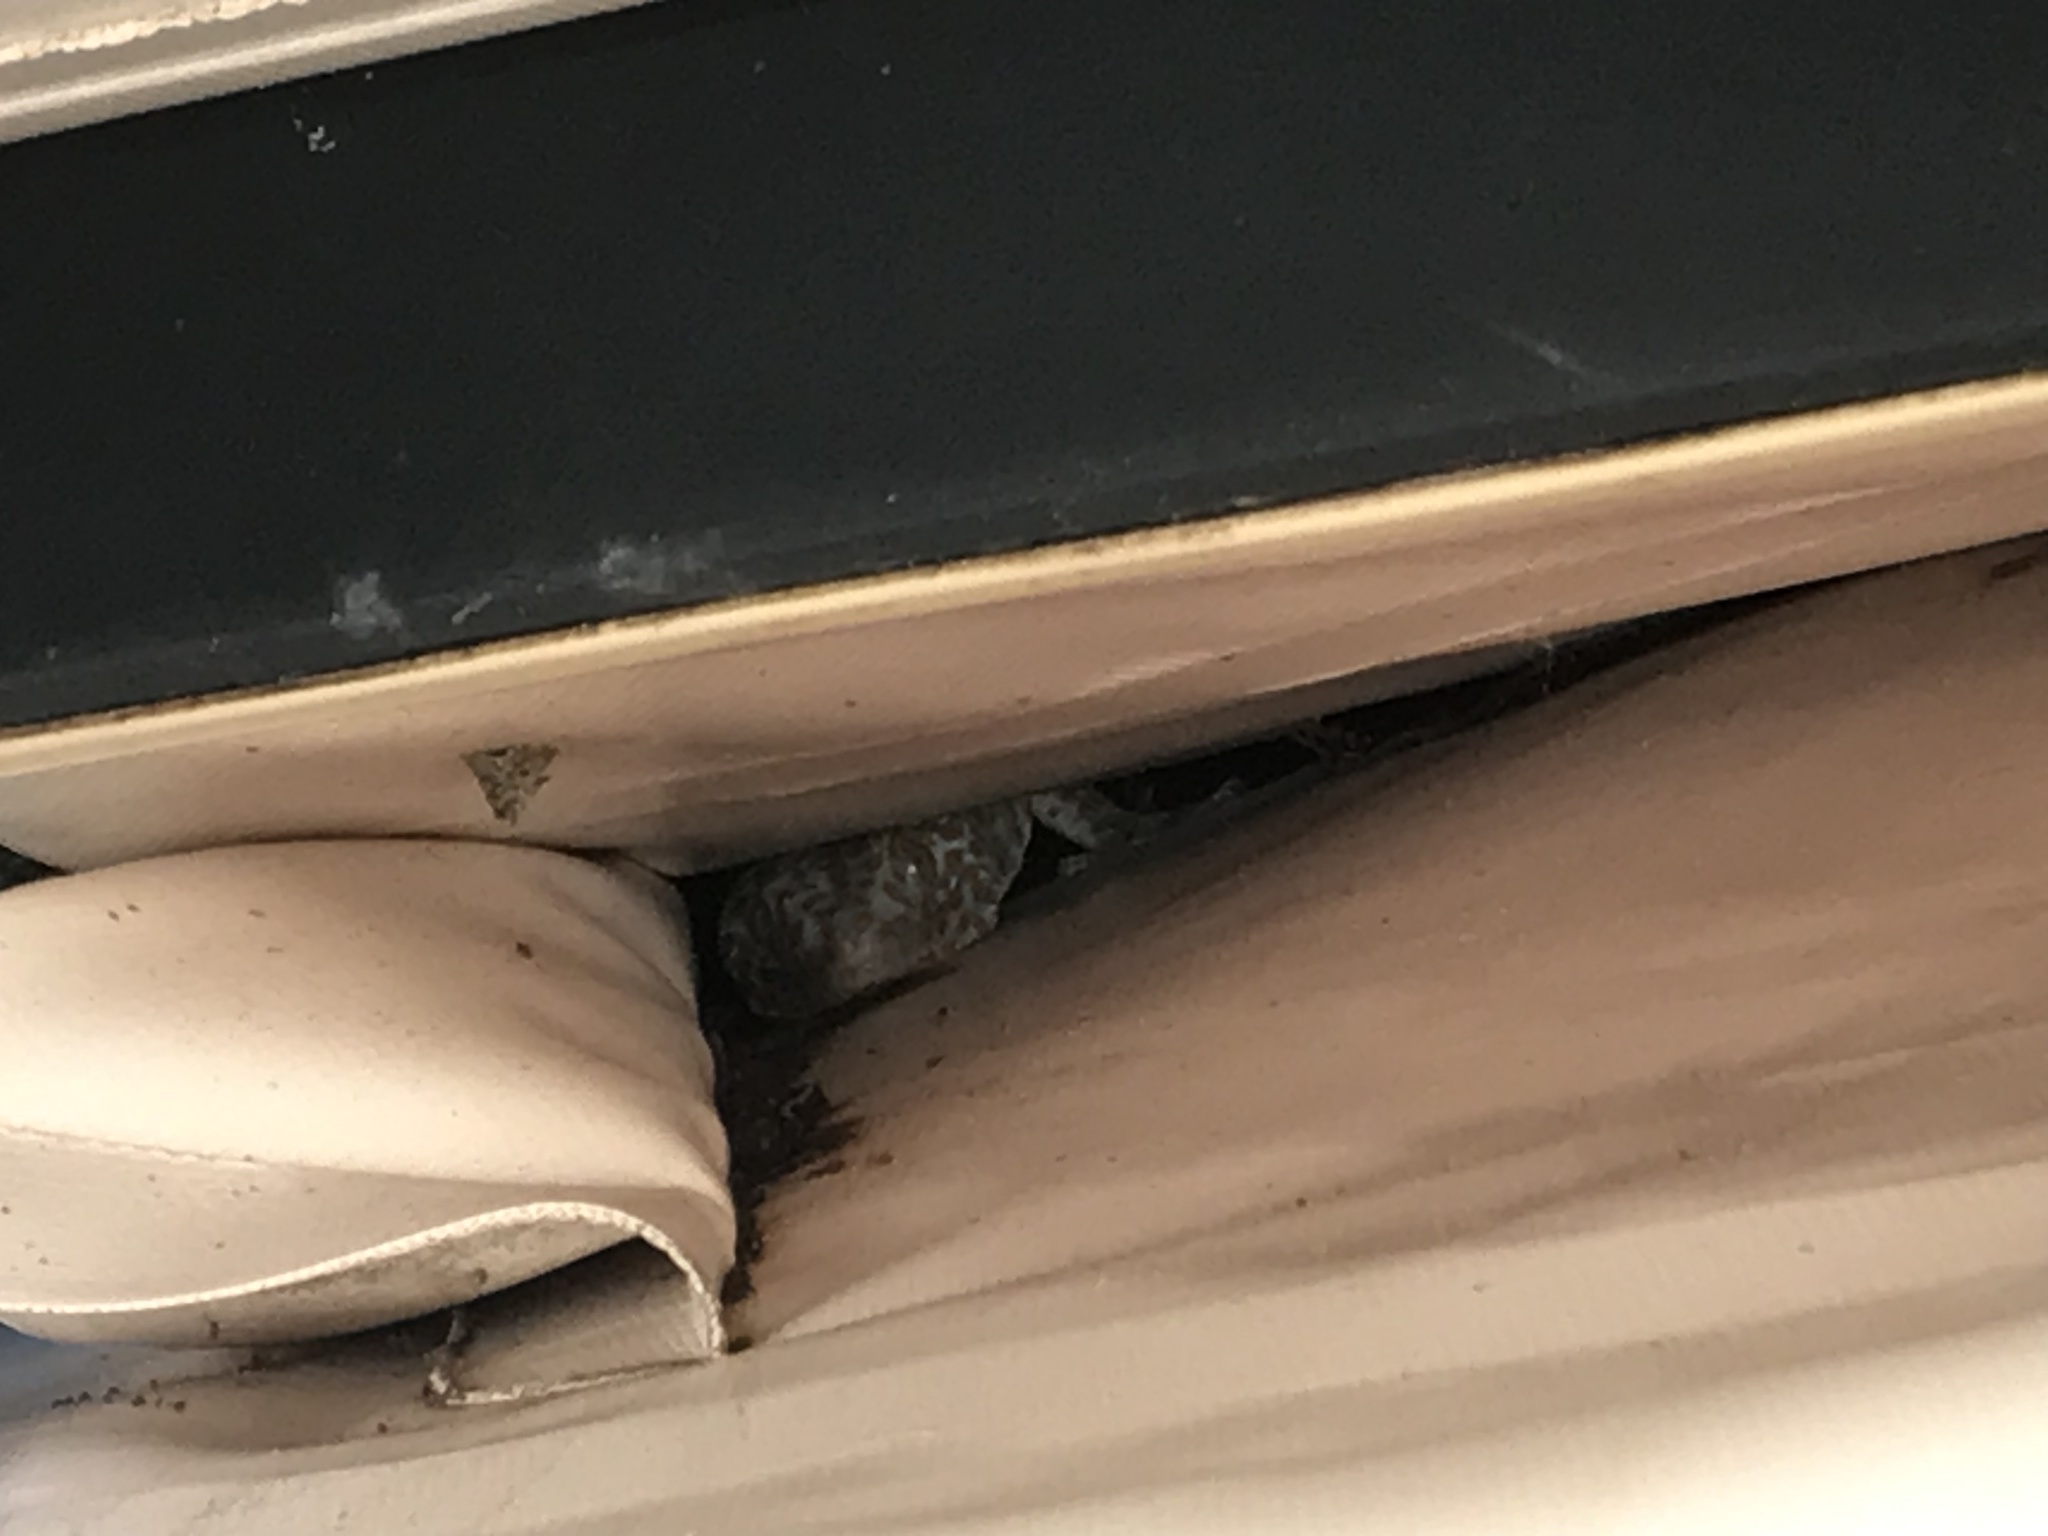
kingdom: Animalia
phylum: Chordata
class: Squamata
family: Gekkonidae
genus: Gekko
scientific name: Gekko gecko
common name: Tokay gecko
